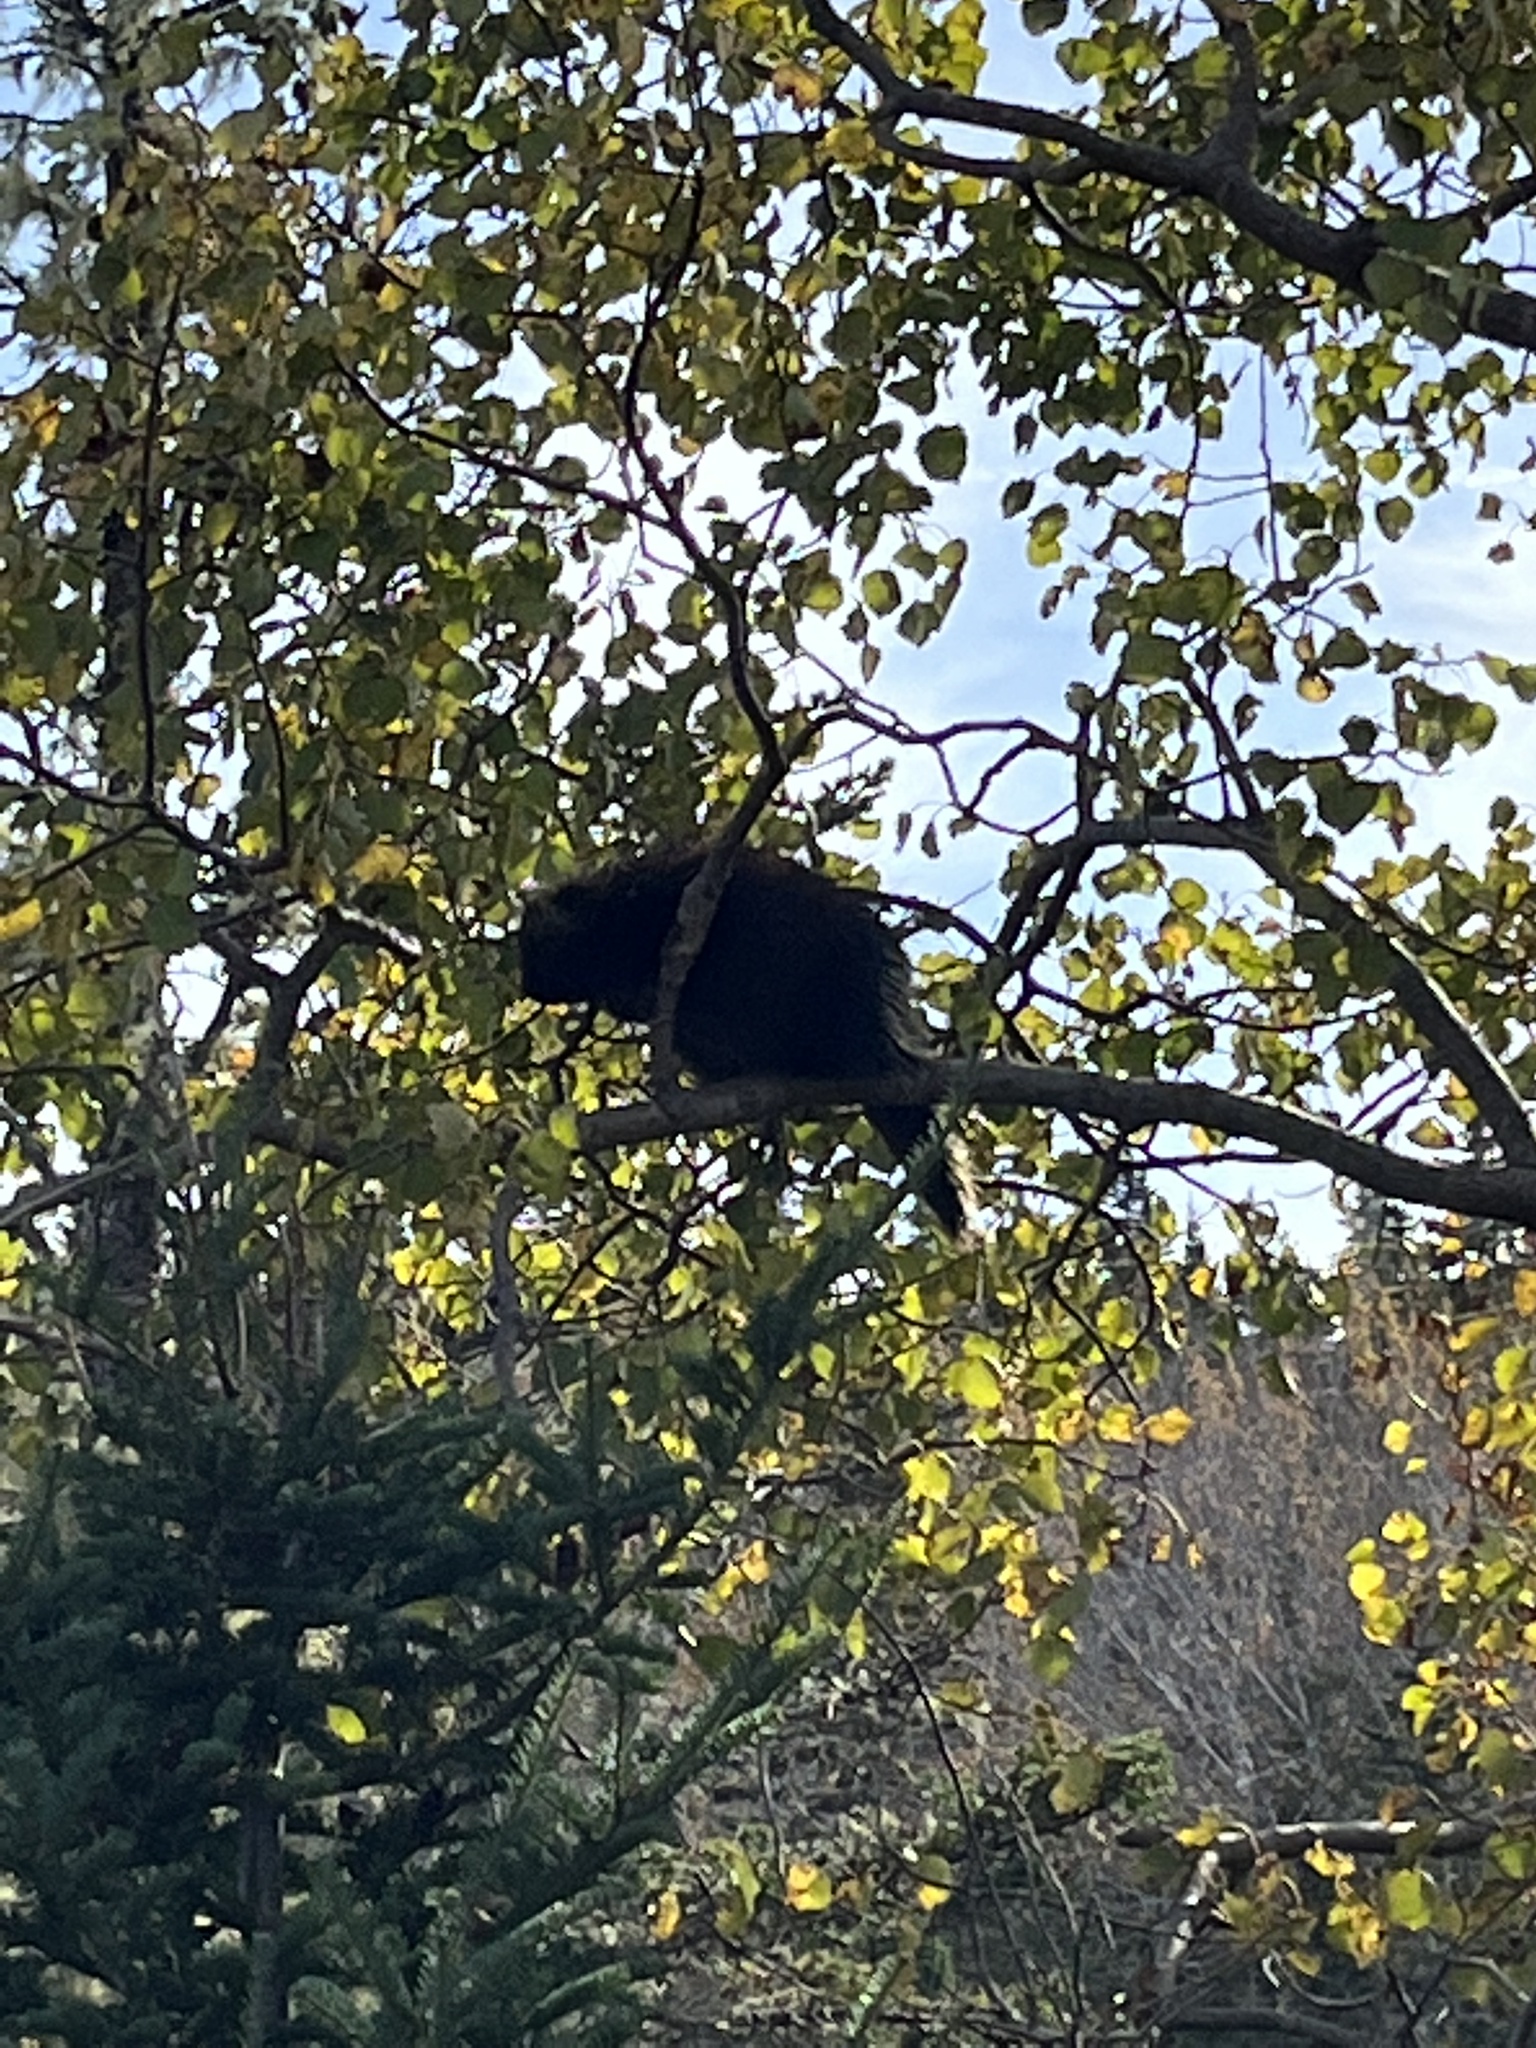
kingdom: Animalia
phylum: Chordata
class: Mammalia
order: Rodentia
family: Erethizontidae
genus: Erethizon
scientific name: Erethizon dorsatus
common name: North american porcupine
